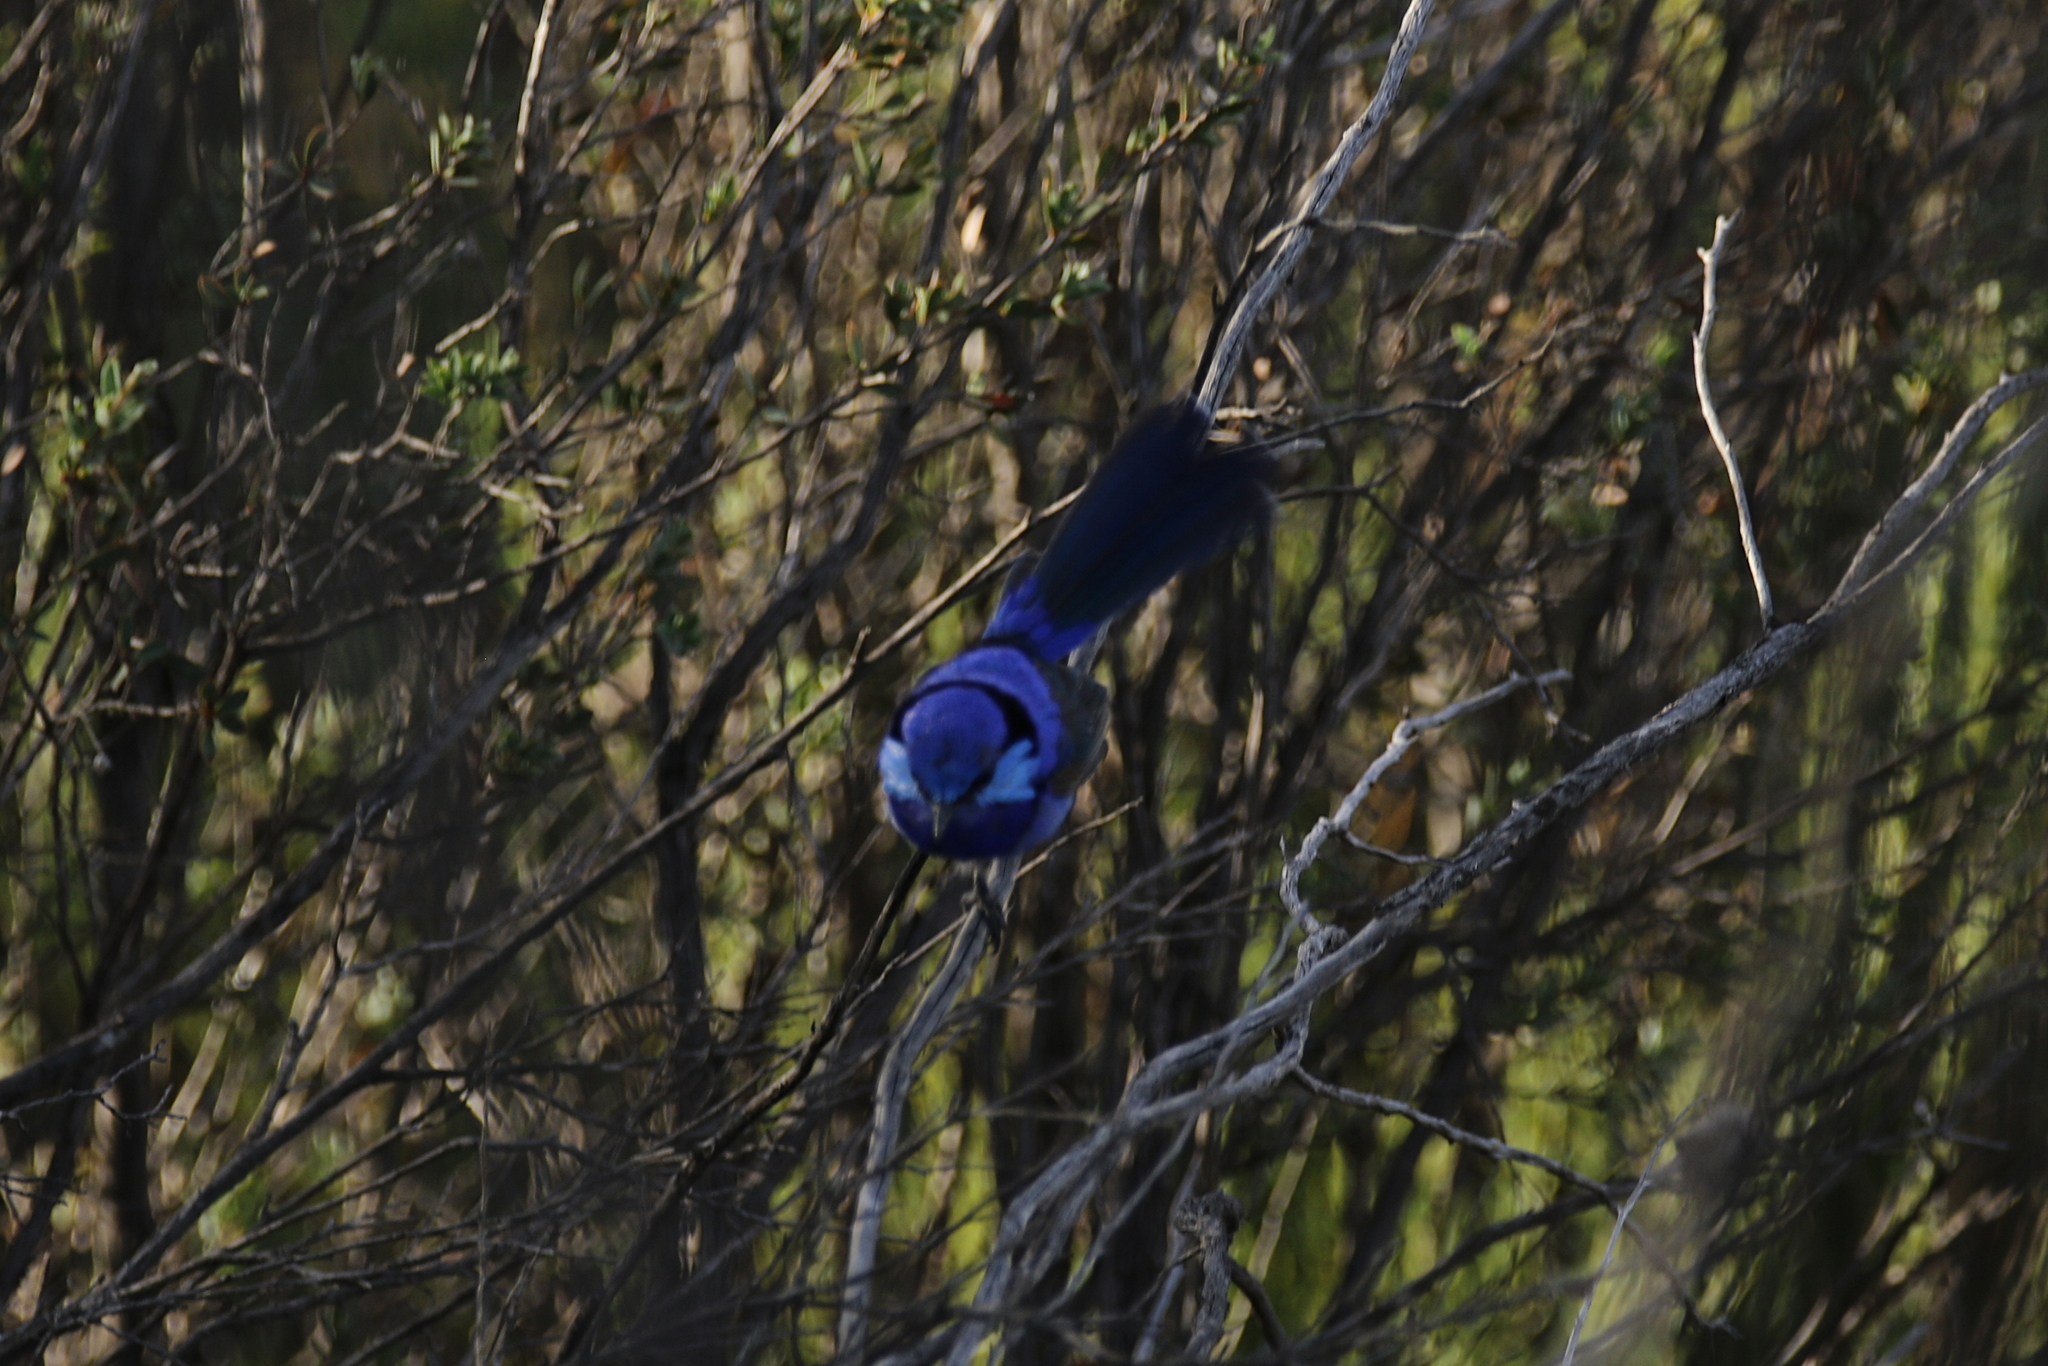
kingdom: Animalia
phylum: Chordata
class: Aves
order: Passeriformes
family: Maluridae
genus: Malurus
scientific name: Malurus splendens
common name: Splendid fairywren
